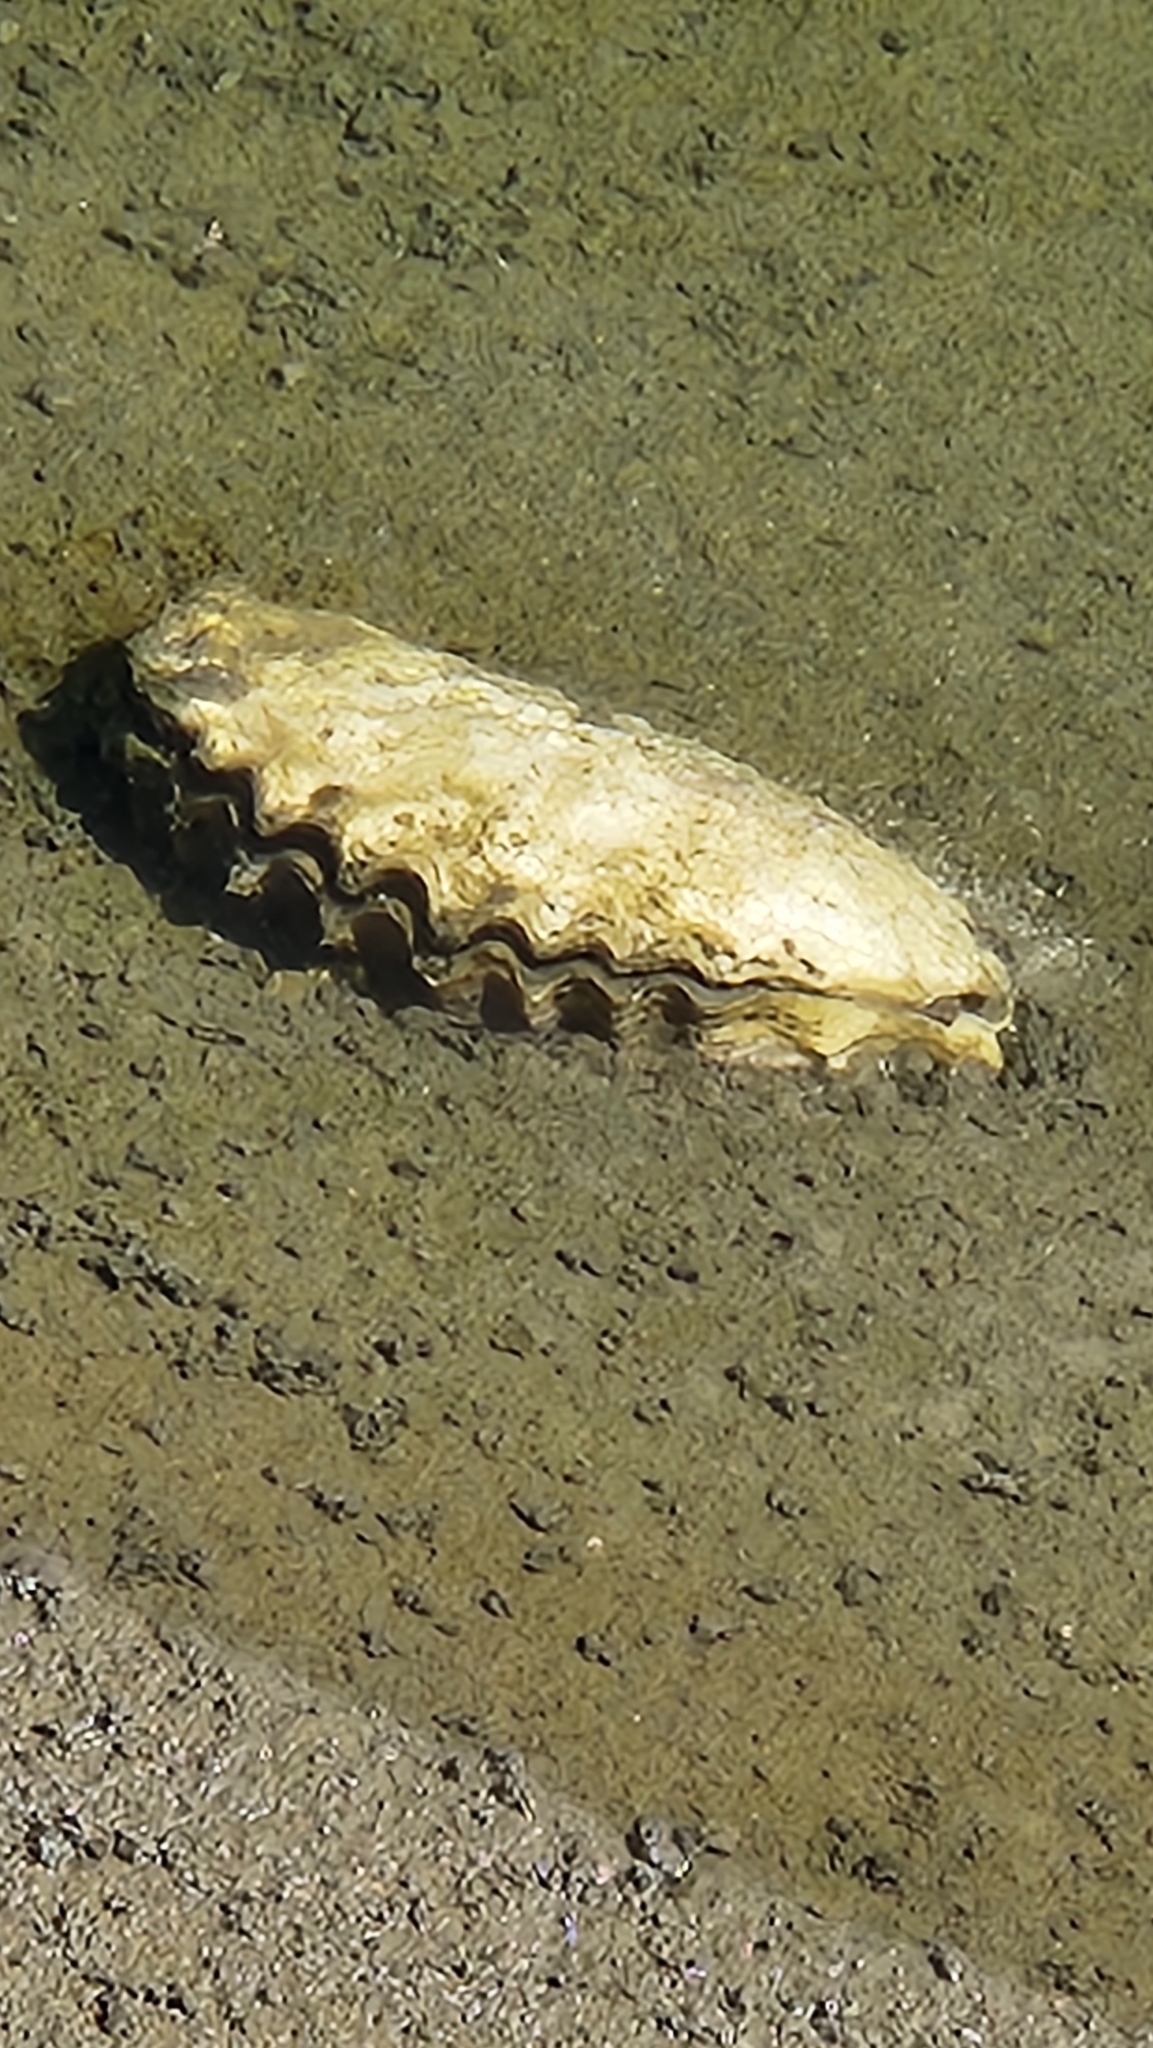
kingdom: Animalia
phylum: Mollusca
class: Bivalvia
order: Ostreida
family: Ostreidae
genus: Magallana
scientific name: Magallana gigas
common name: Pacific oyster
